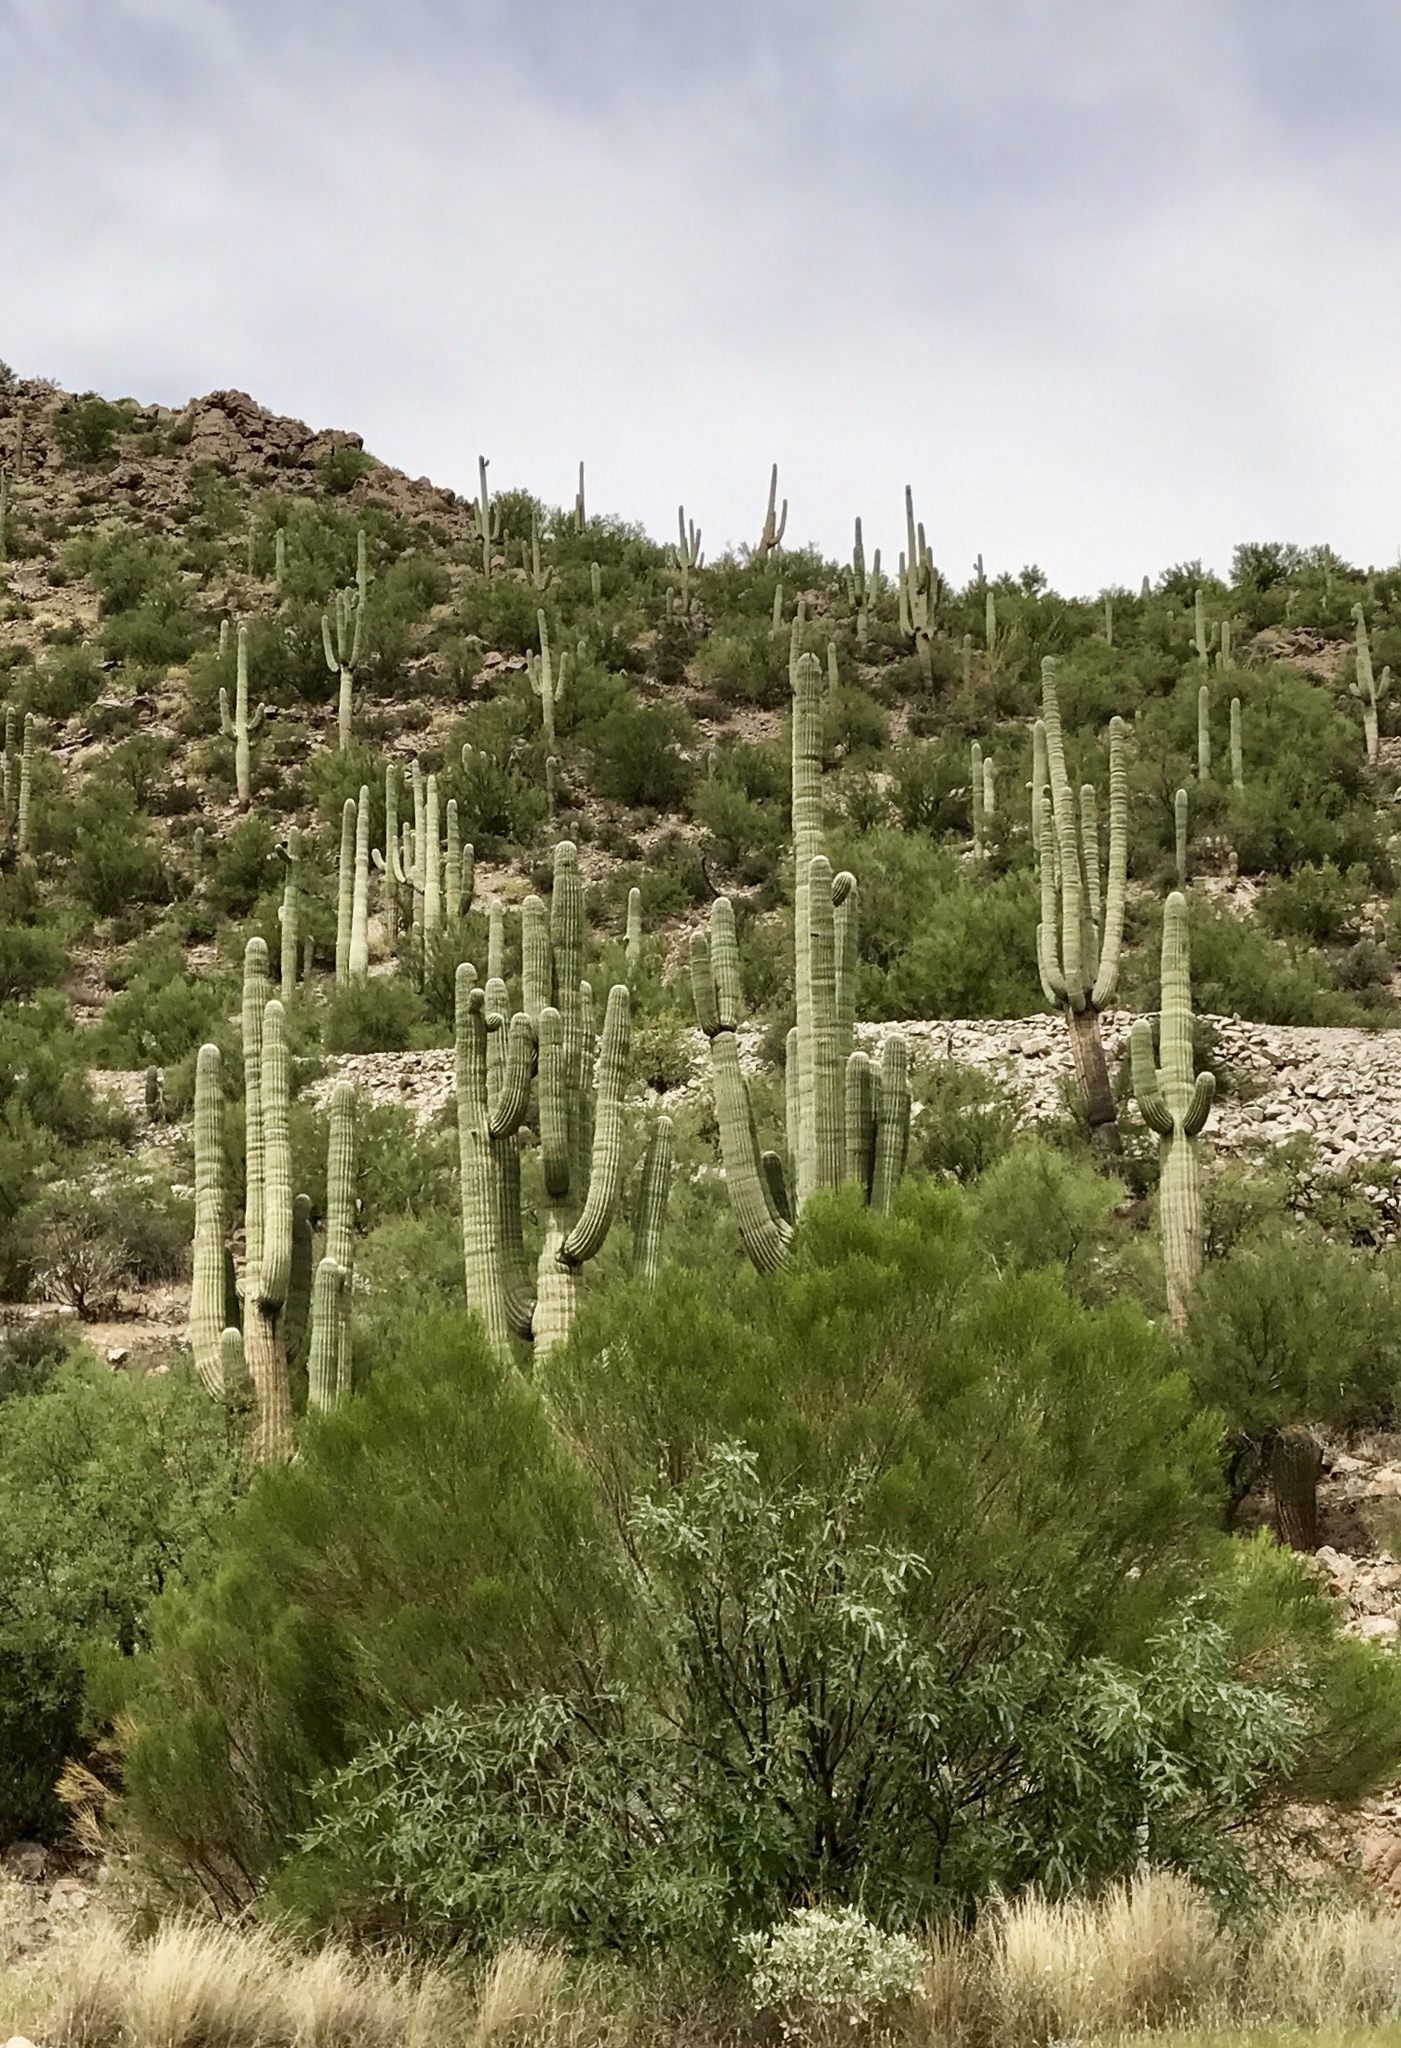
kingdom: Plantae
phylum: Tracheophyta
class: Magnoliopsida
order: Caryophyllales
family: Cactaceae
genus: Carnegiea
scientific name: Carnegiea gigantea
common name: Saguaro
